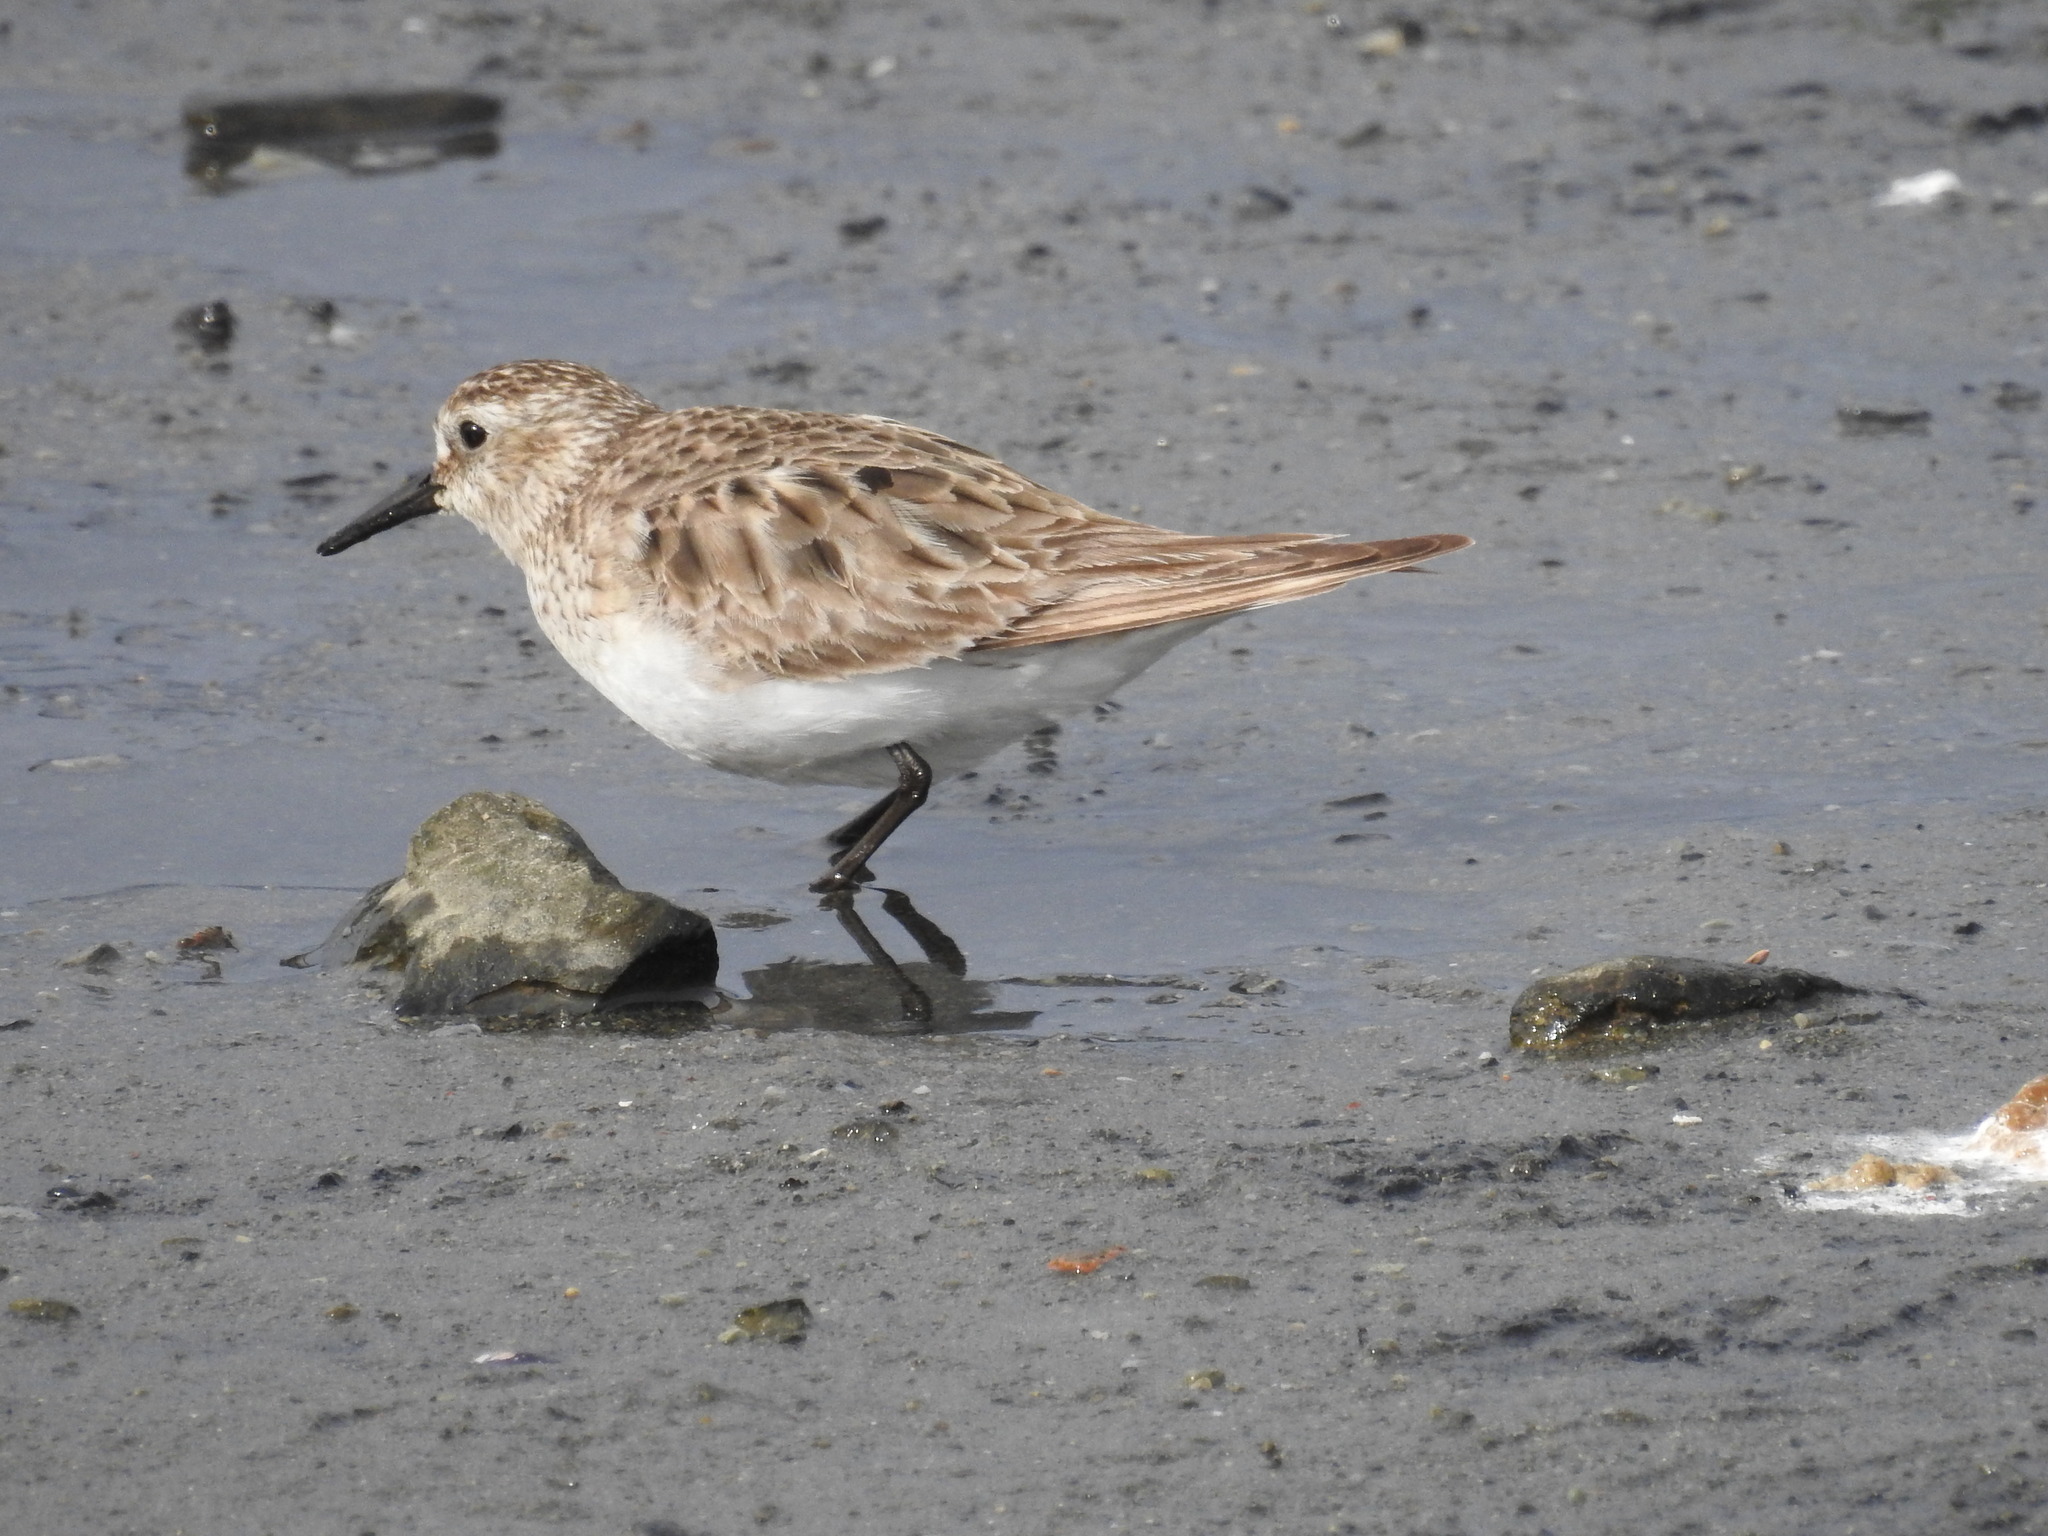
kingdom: Animalia
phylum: Chordata
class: Aves
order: Charadriiformes
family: Scolopacidae
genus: Calidris
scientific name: Calidris bairdii
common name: Baird's sandpiper
